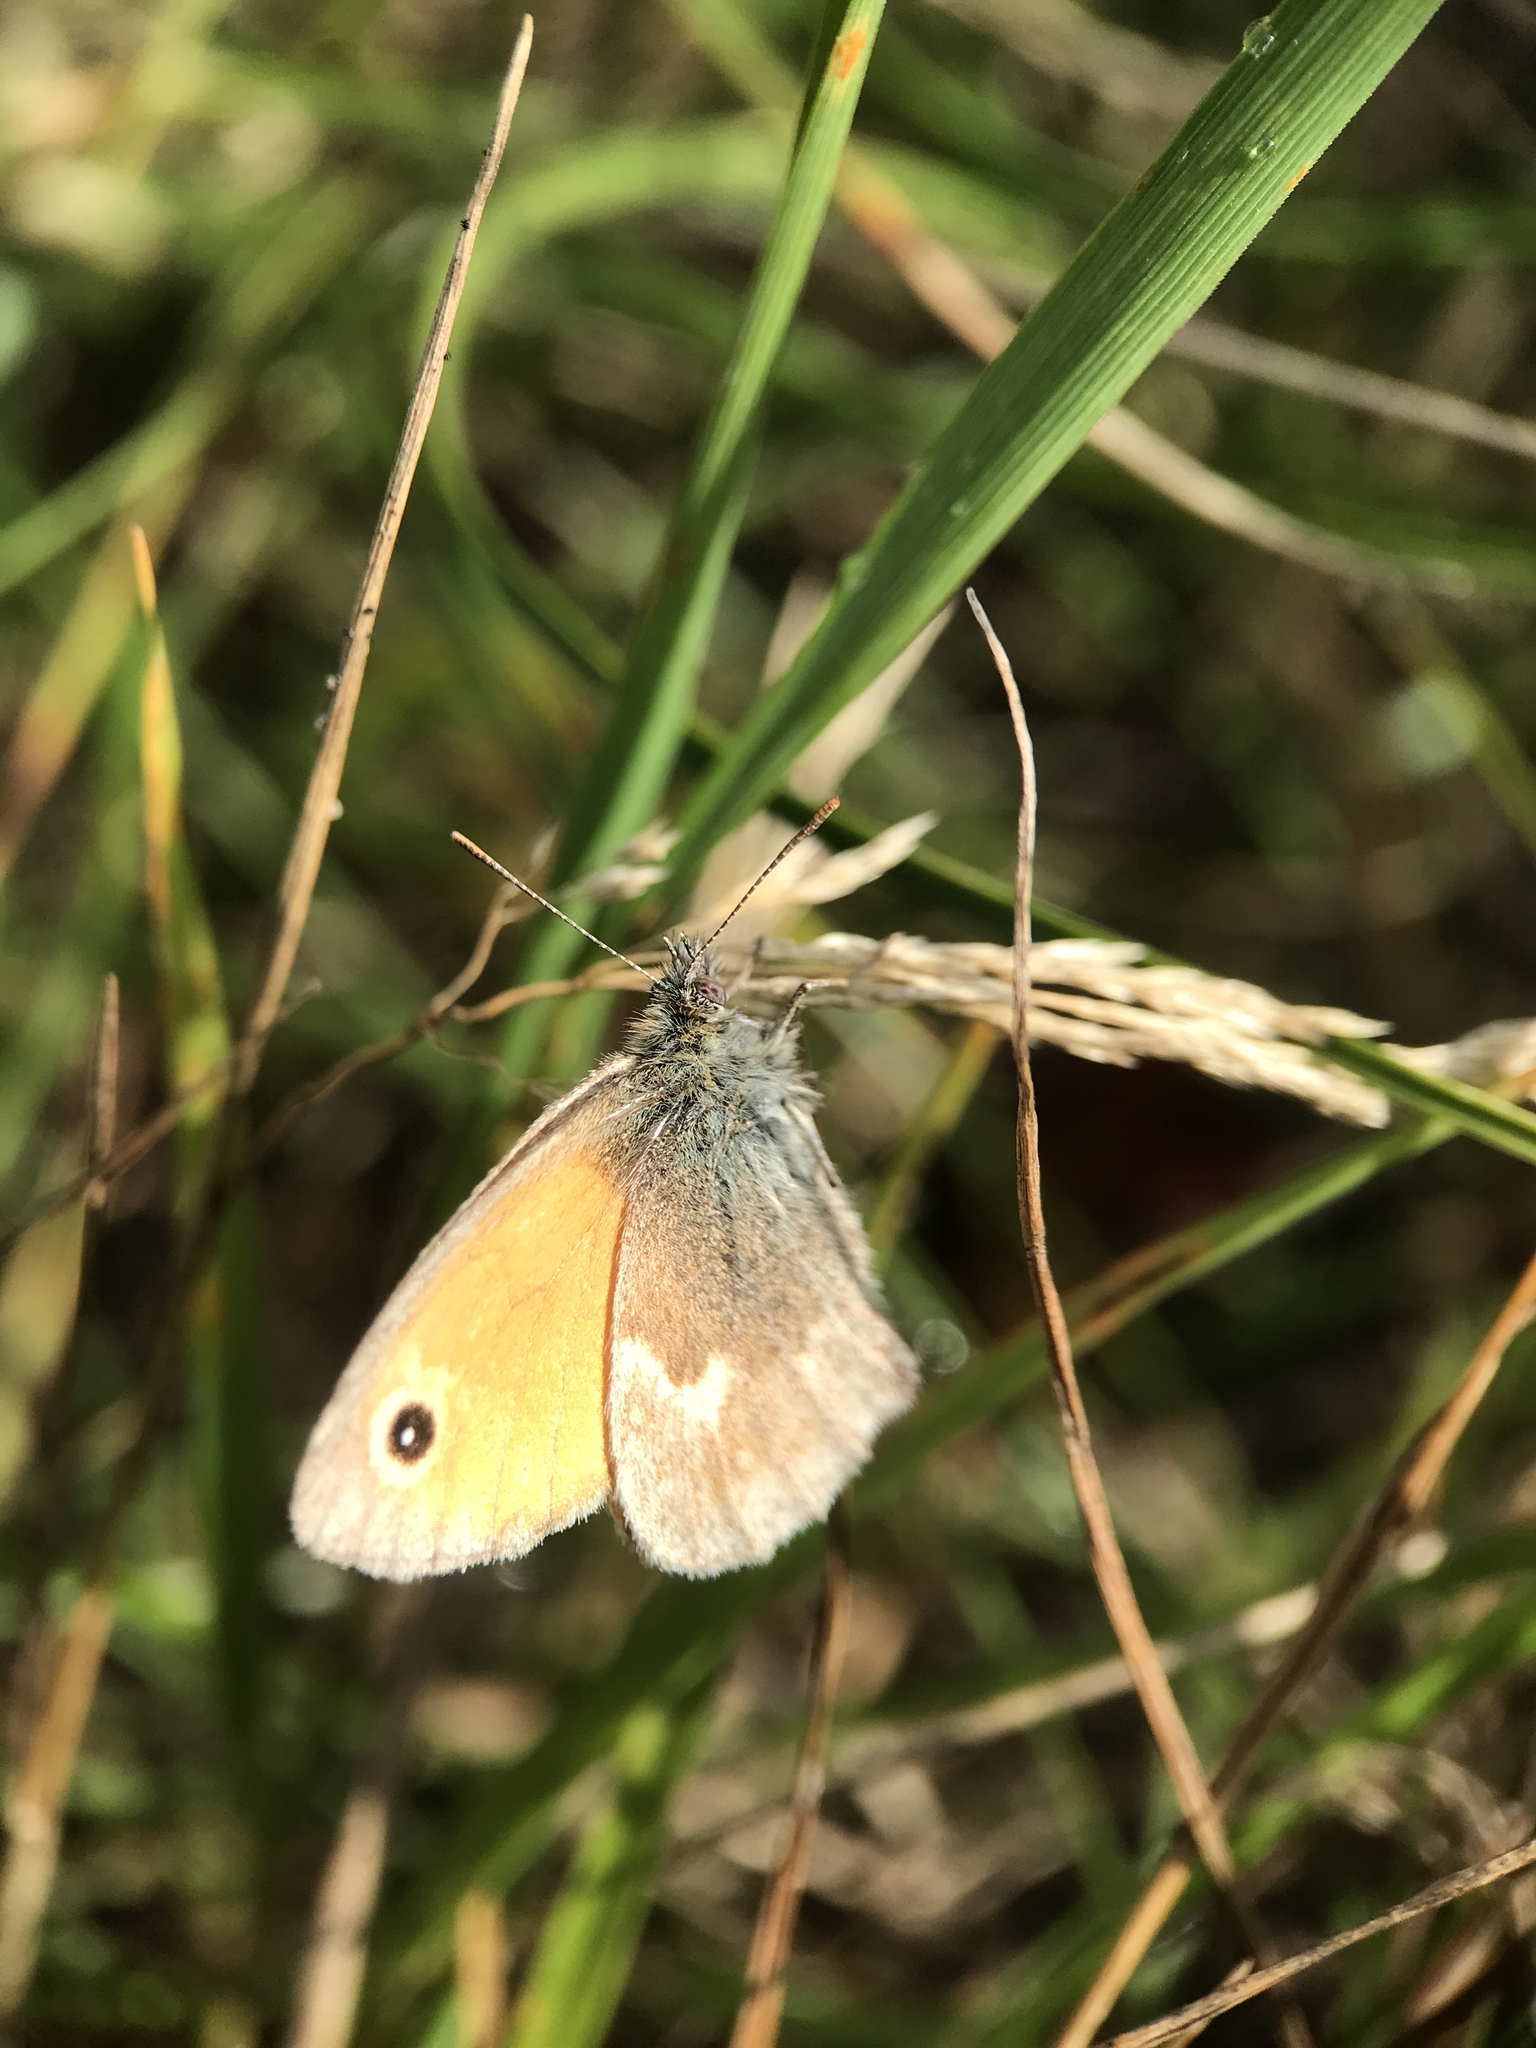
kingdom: Animalia
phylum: Arthropoda
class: Insecta
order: Lepidoptera
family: Nymphalidae
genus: Coenonympha
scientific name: Coenonympha pamphilus
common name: Small heath
